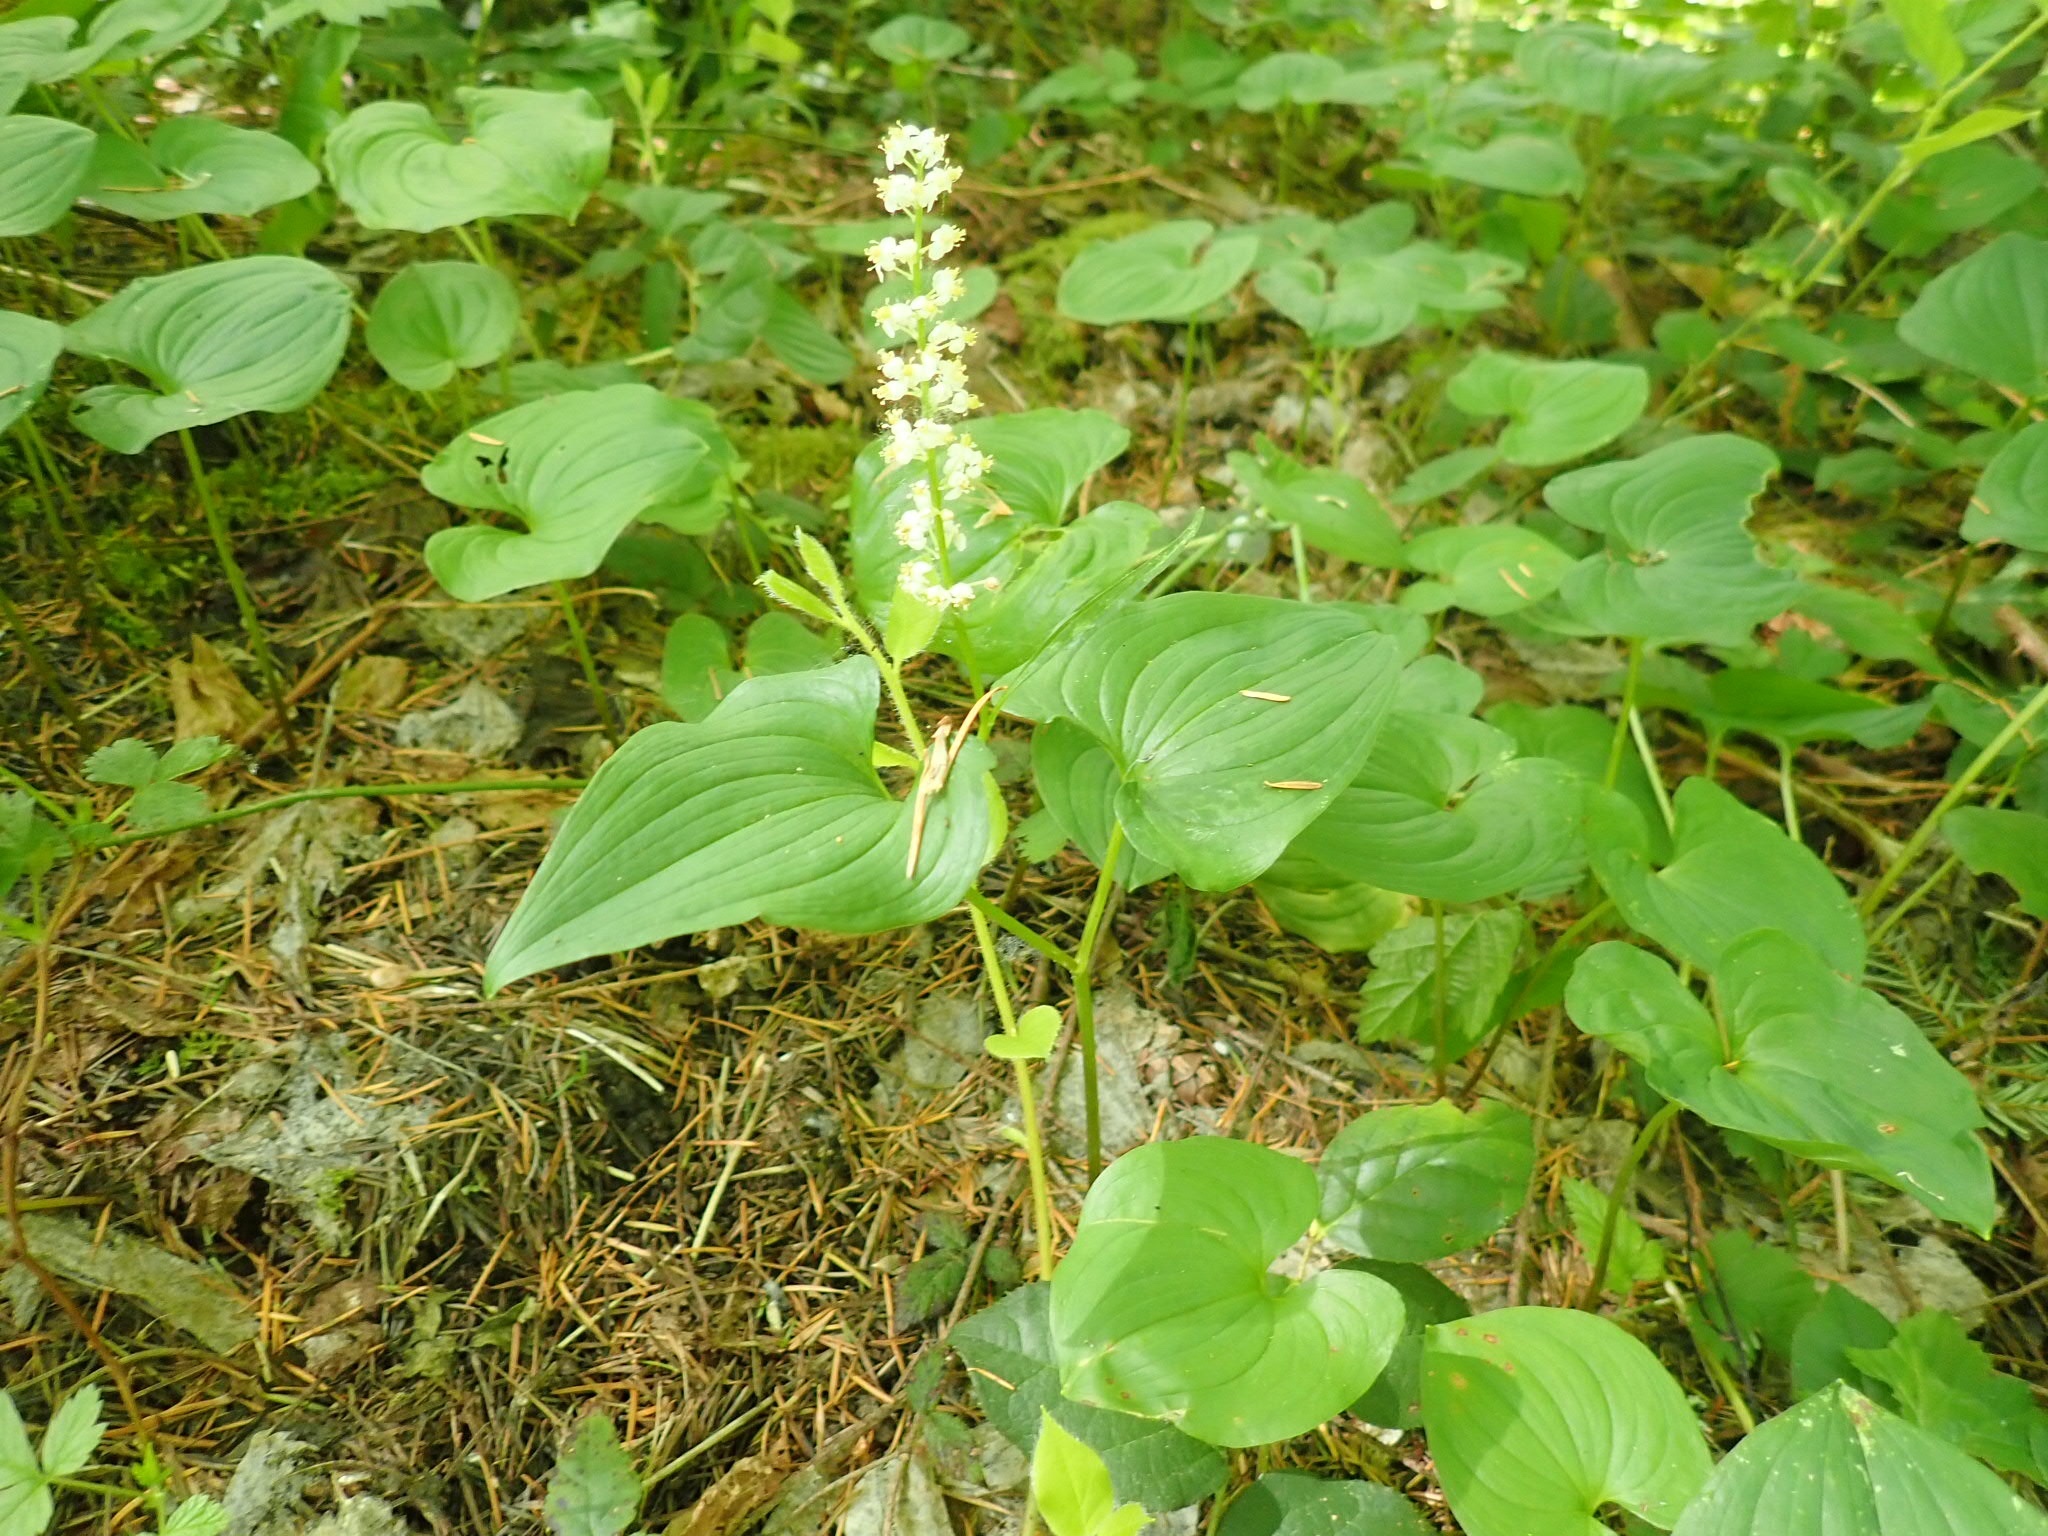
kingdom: Plantae
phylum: Tracheophyta
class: Liliopsida
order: Asparagales
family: Asparagaceae
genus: Maianthemum
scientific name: Maianthemum dilatatum
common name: False lily-of-the-valley
